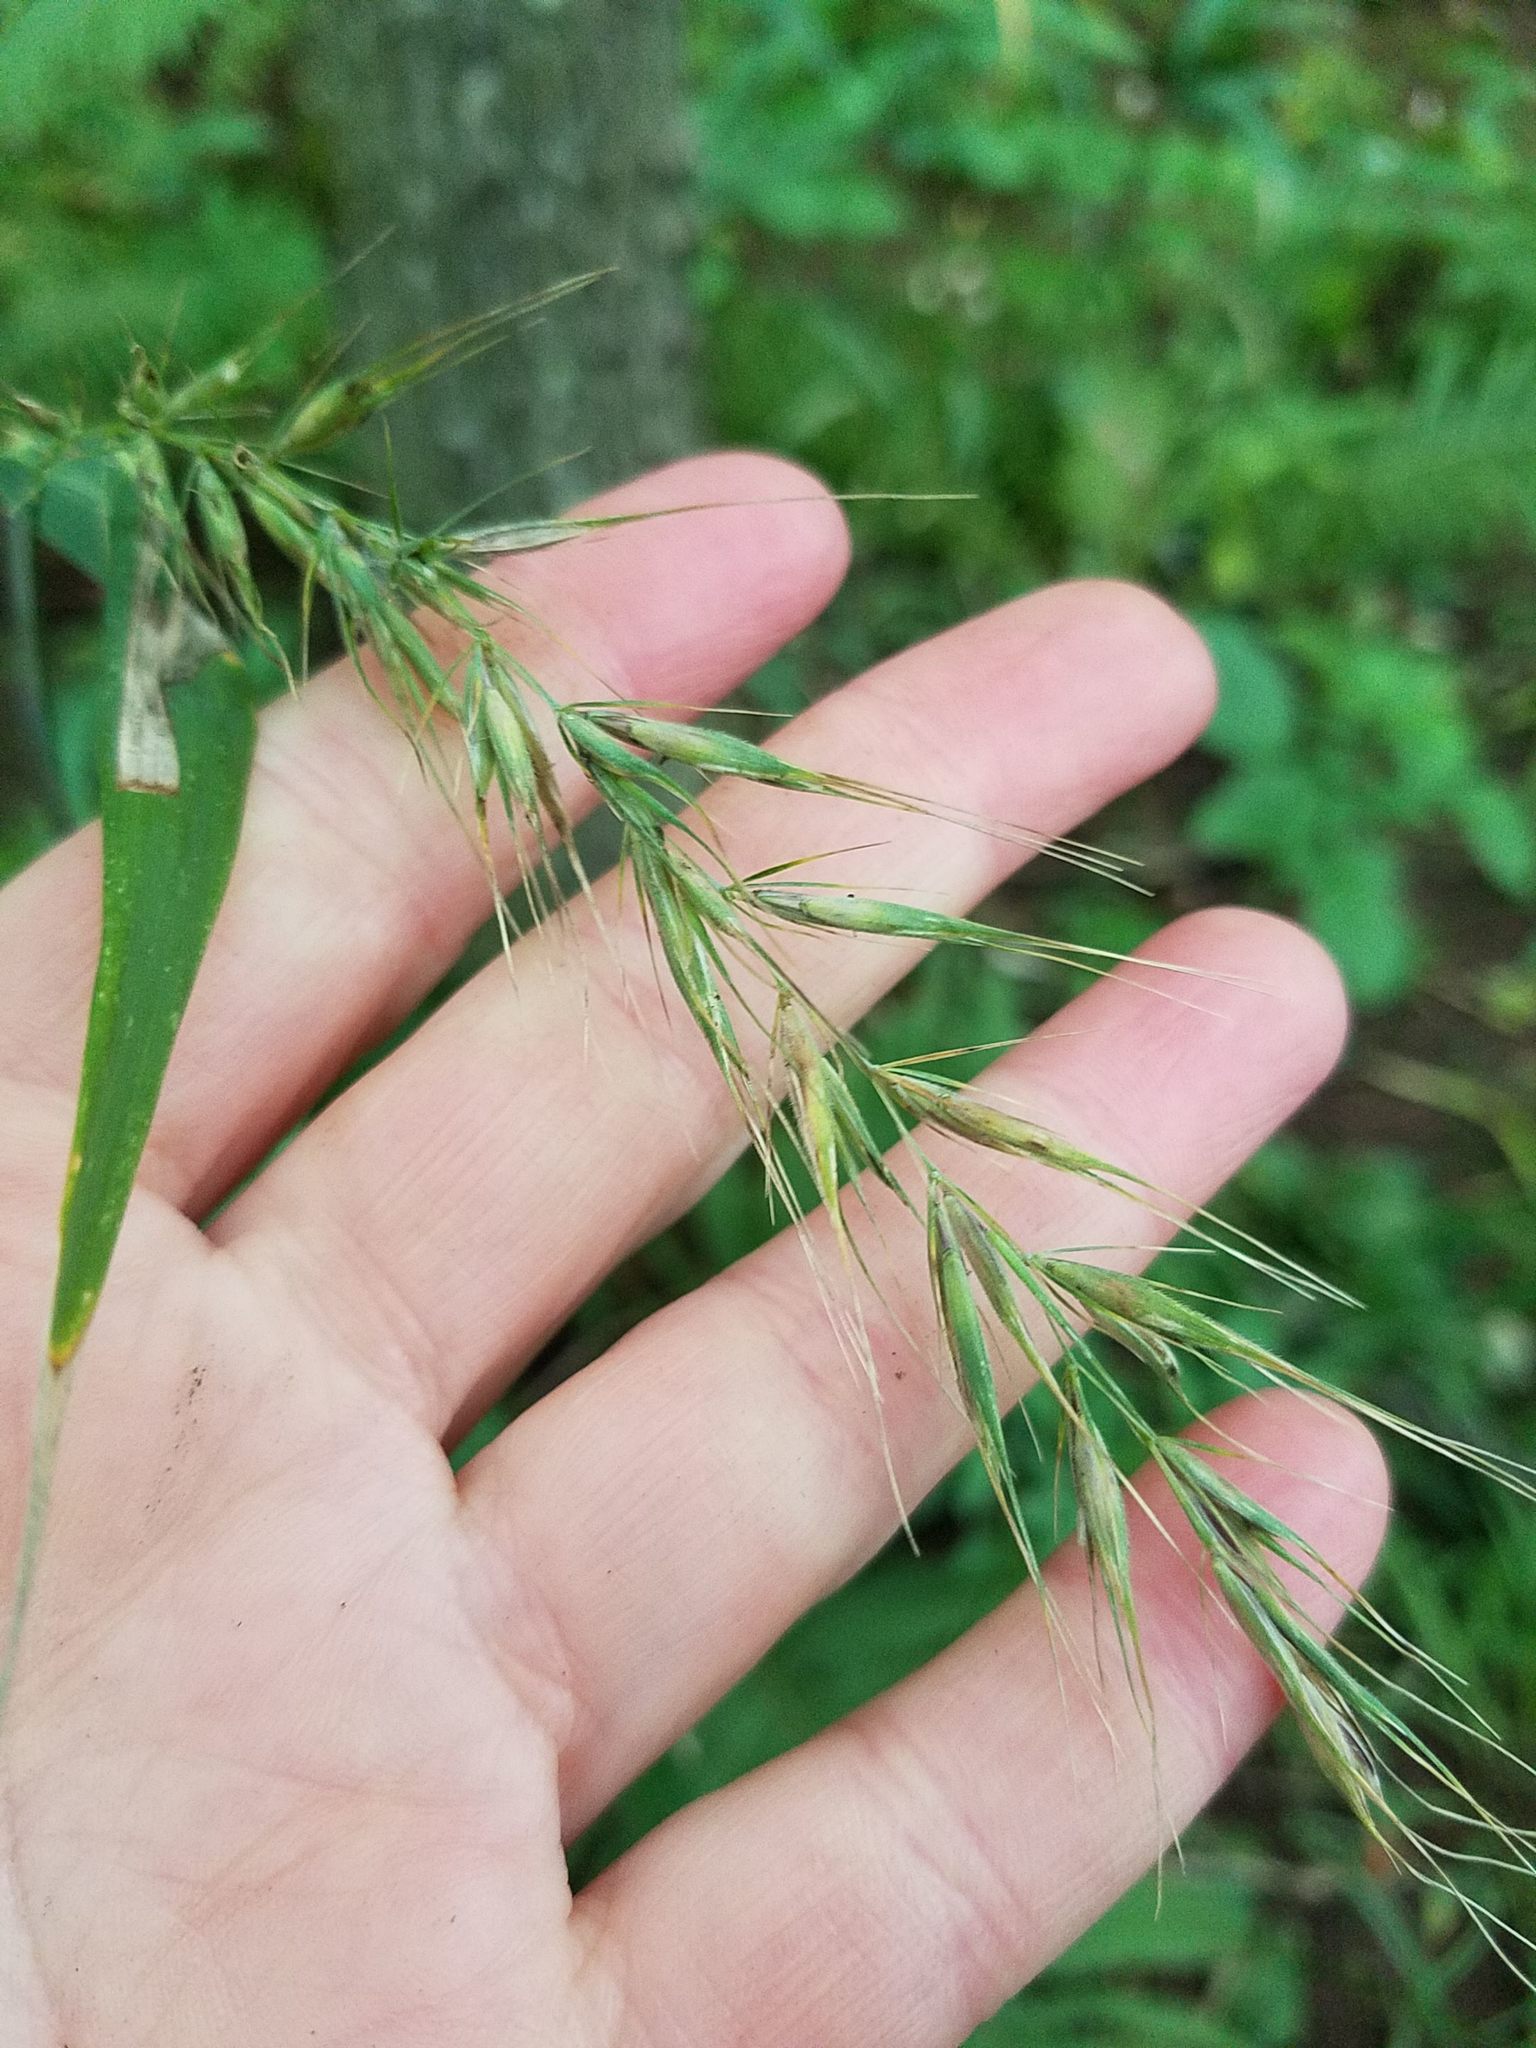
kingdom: Plantae
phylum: Tracheophyta
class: Liliopsida
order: Poales
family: Poaceae
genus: Elymus
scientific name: Elymus hystrix
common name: Bottlebrush grass
